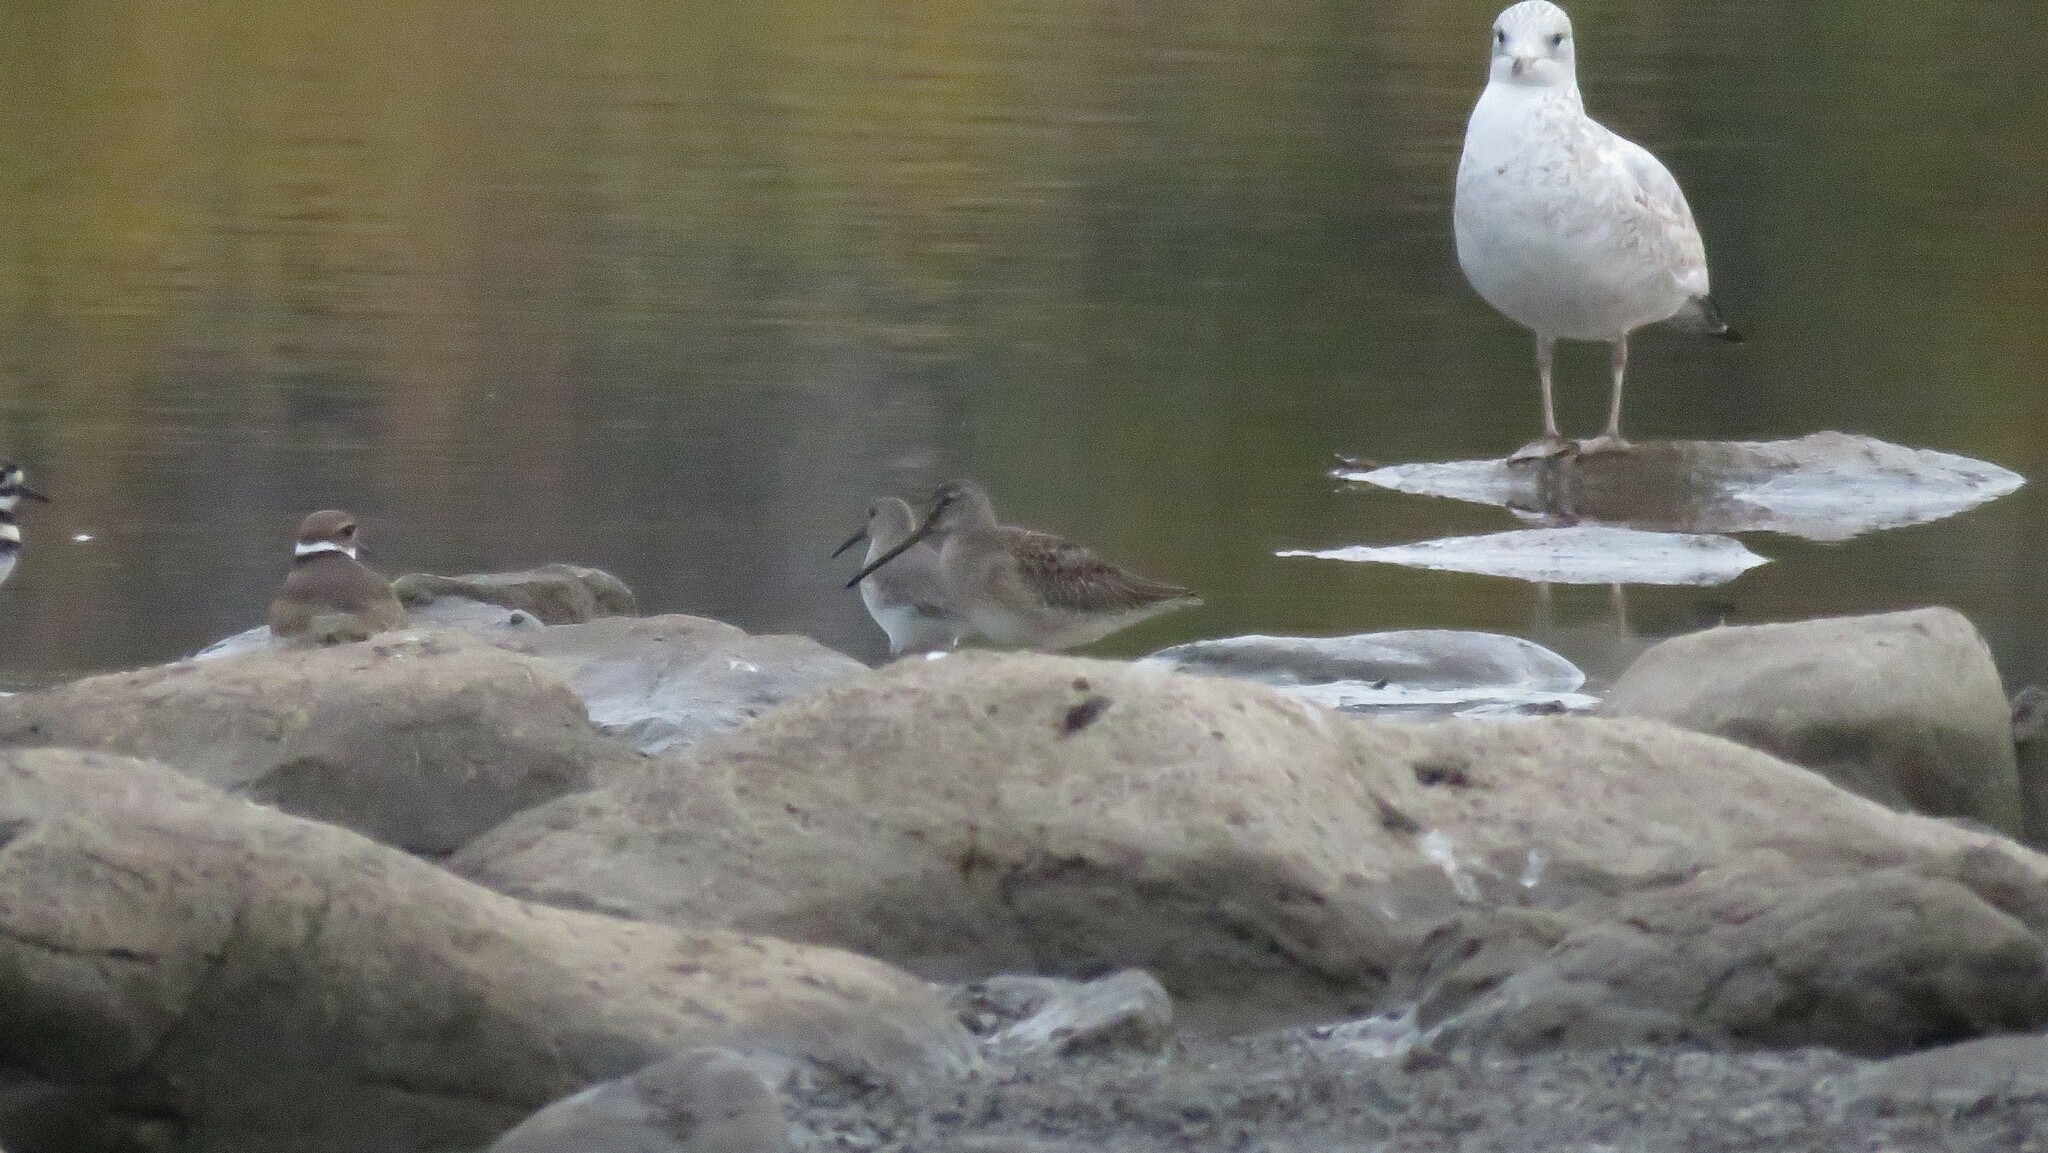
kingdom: Animalia
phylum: Chordata
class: Aves
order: Charadriiformes
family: Scolopacidae
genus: Limnodromus
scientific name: Limnodromus scolopaceus
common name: Long-billed dowitcher
